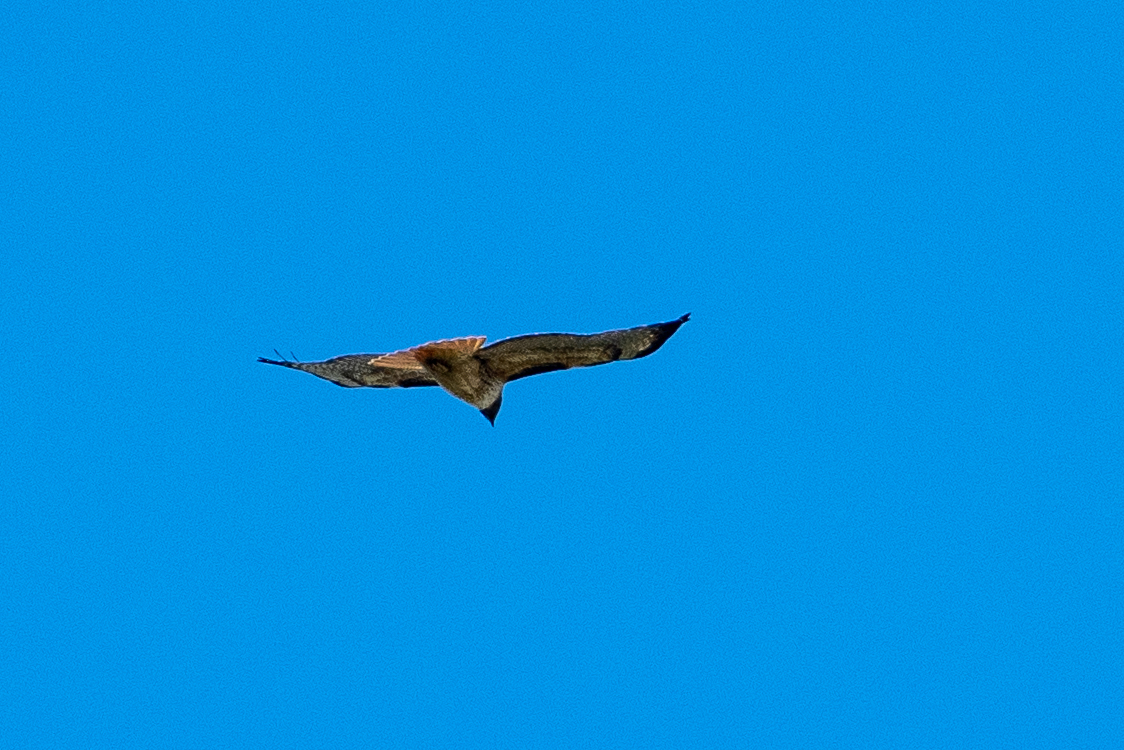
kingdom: Animalia
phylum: Chordata
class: Aves
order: Accipitriformes
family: Accipitridae
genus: Buteo
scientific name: Buteo jamaicensis
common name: Red-tailed hawk
